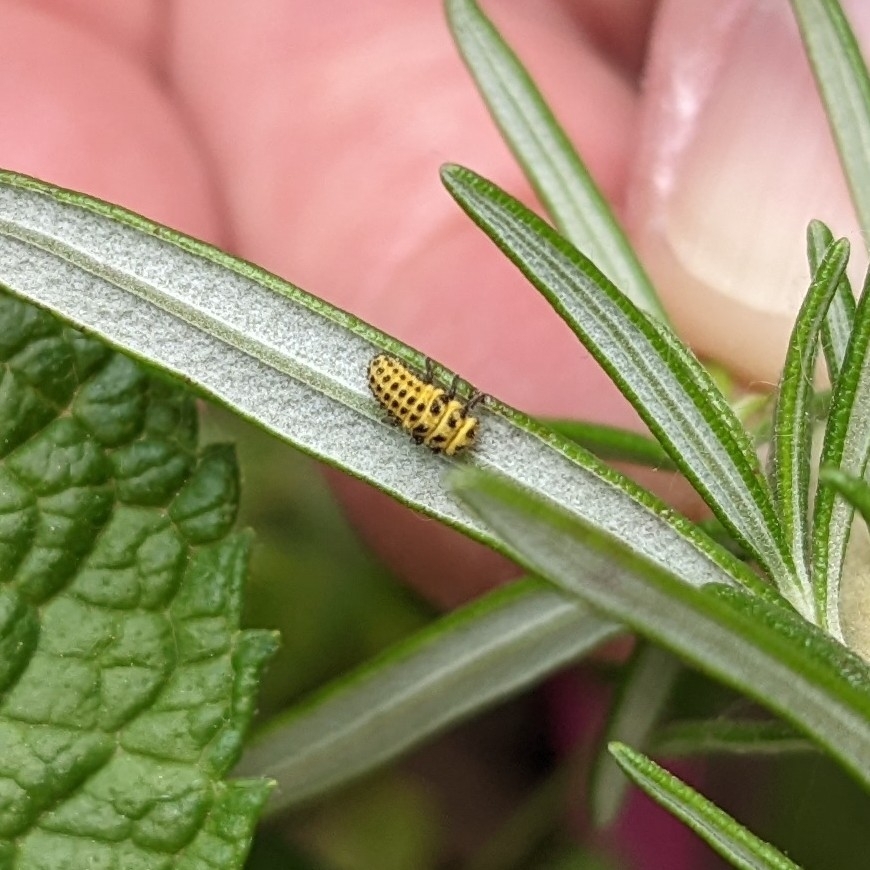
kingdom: Animalia
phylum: Arthropoda
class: Insecta
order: Coleoptera
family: Coccinellidae
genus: Psyllobora
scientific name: Psyllobora vigintiduopunctata
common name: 22-spot ladybird
